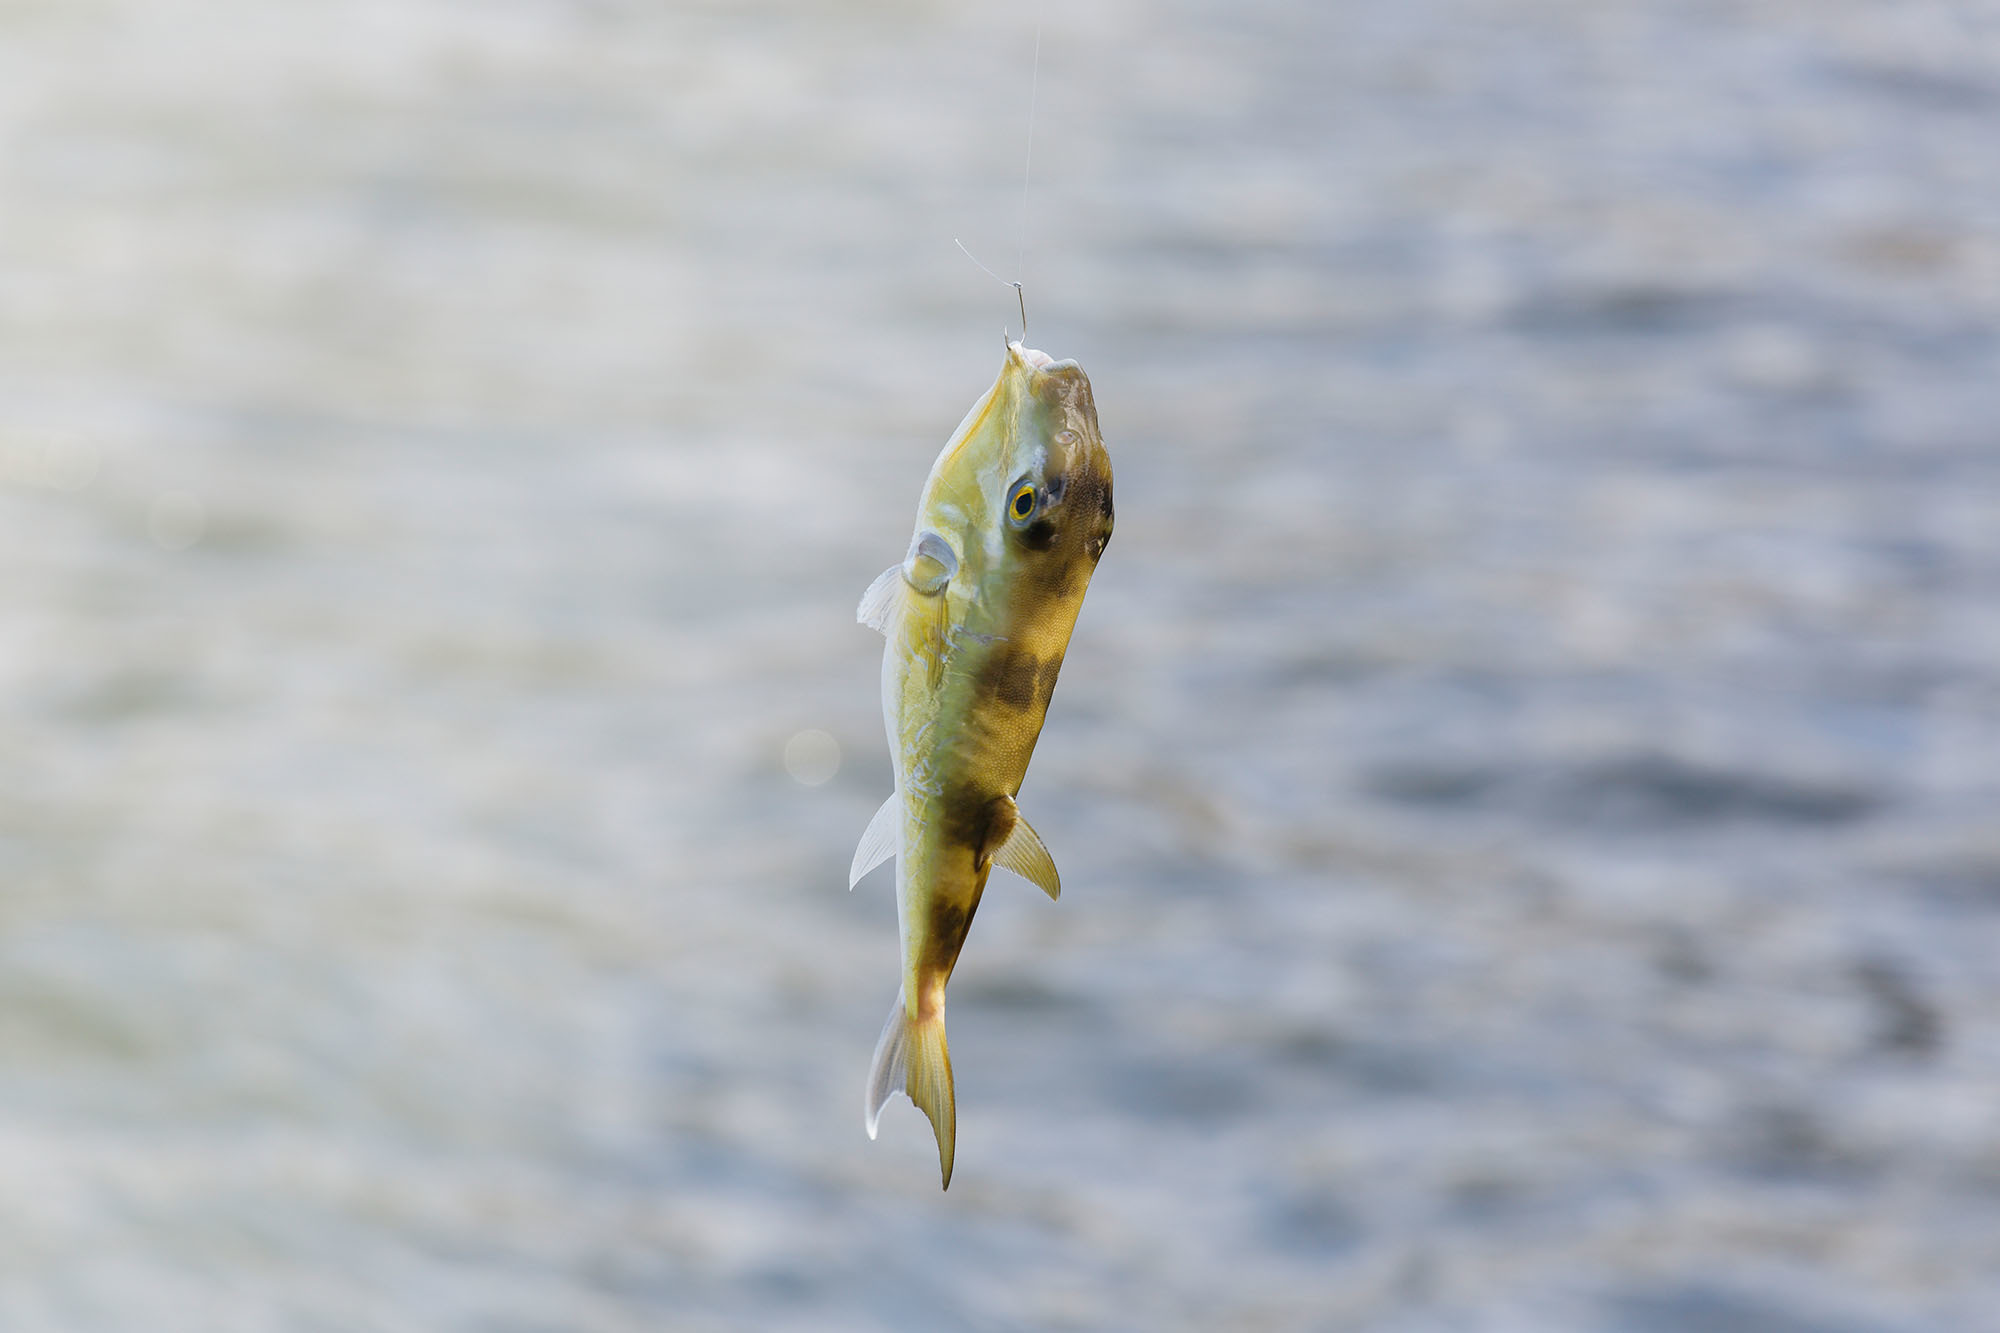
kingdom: Animalia
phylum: Chordata
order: Tetraodontiformes
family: Tetraodontidae
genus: Lagocephalus
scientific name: Lagocephalus lunaris
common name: Green rrough-backed puffer
